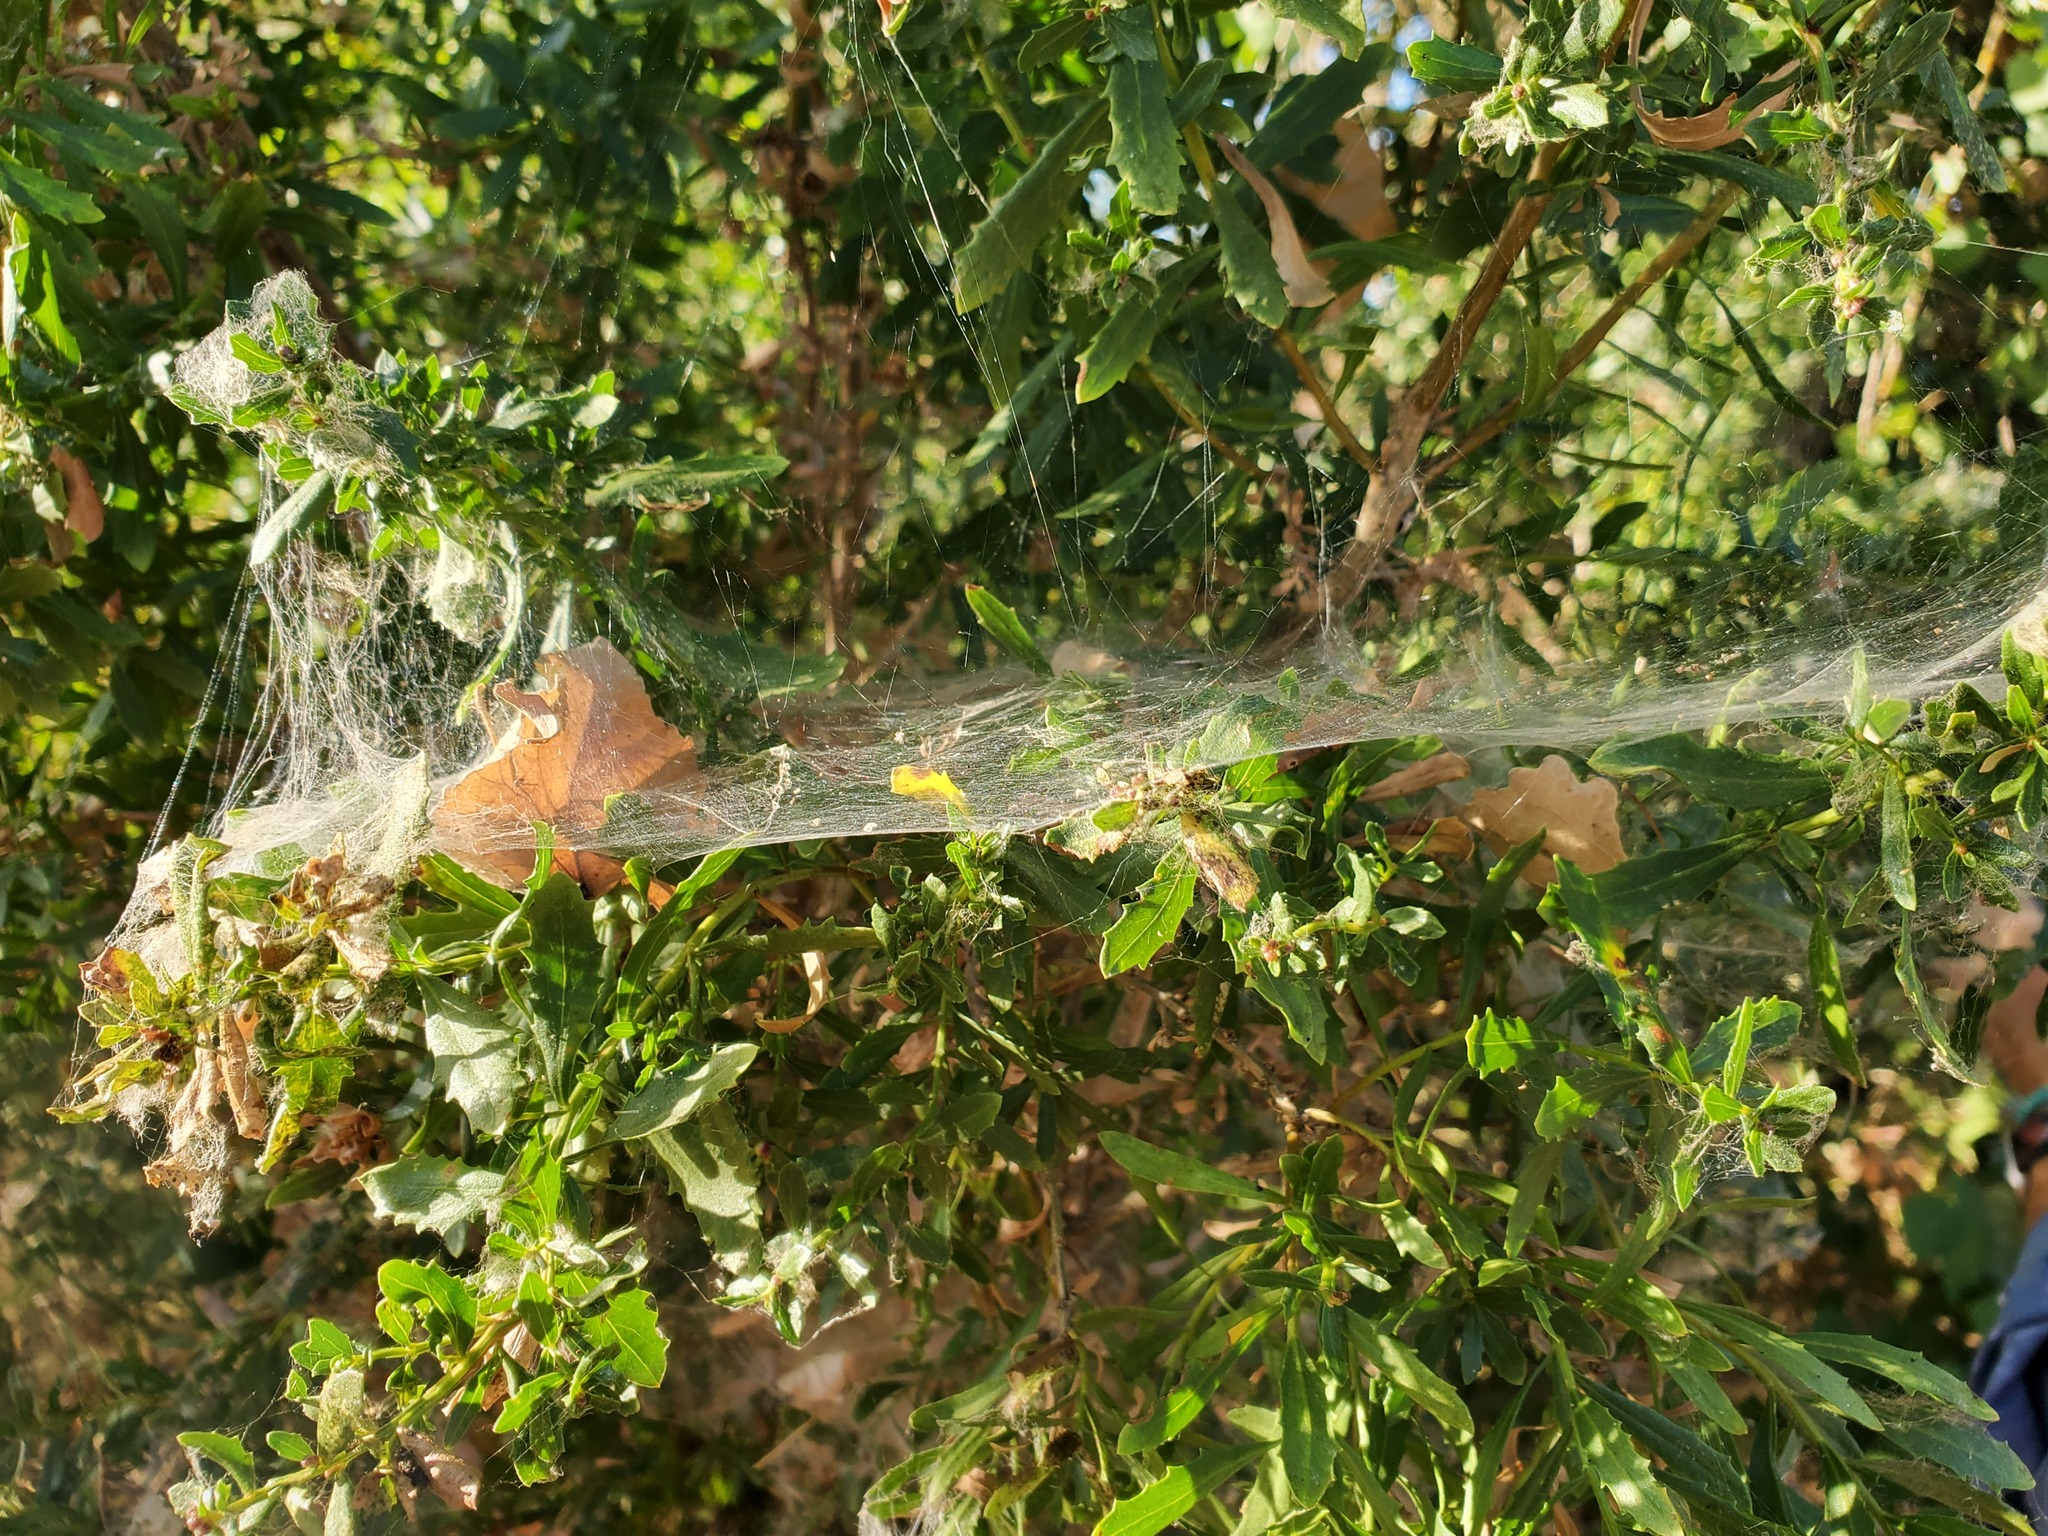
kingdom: Animalia
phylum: Arthropoda
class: Arachnida
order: Araneae
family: Agelenidae
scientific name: Agelenidae
